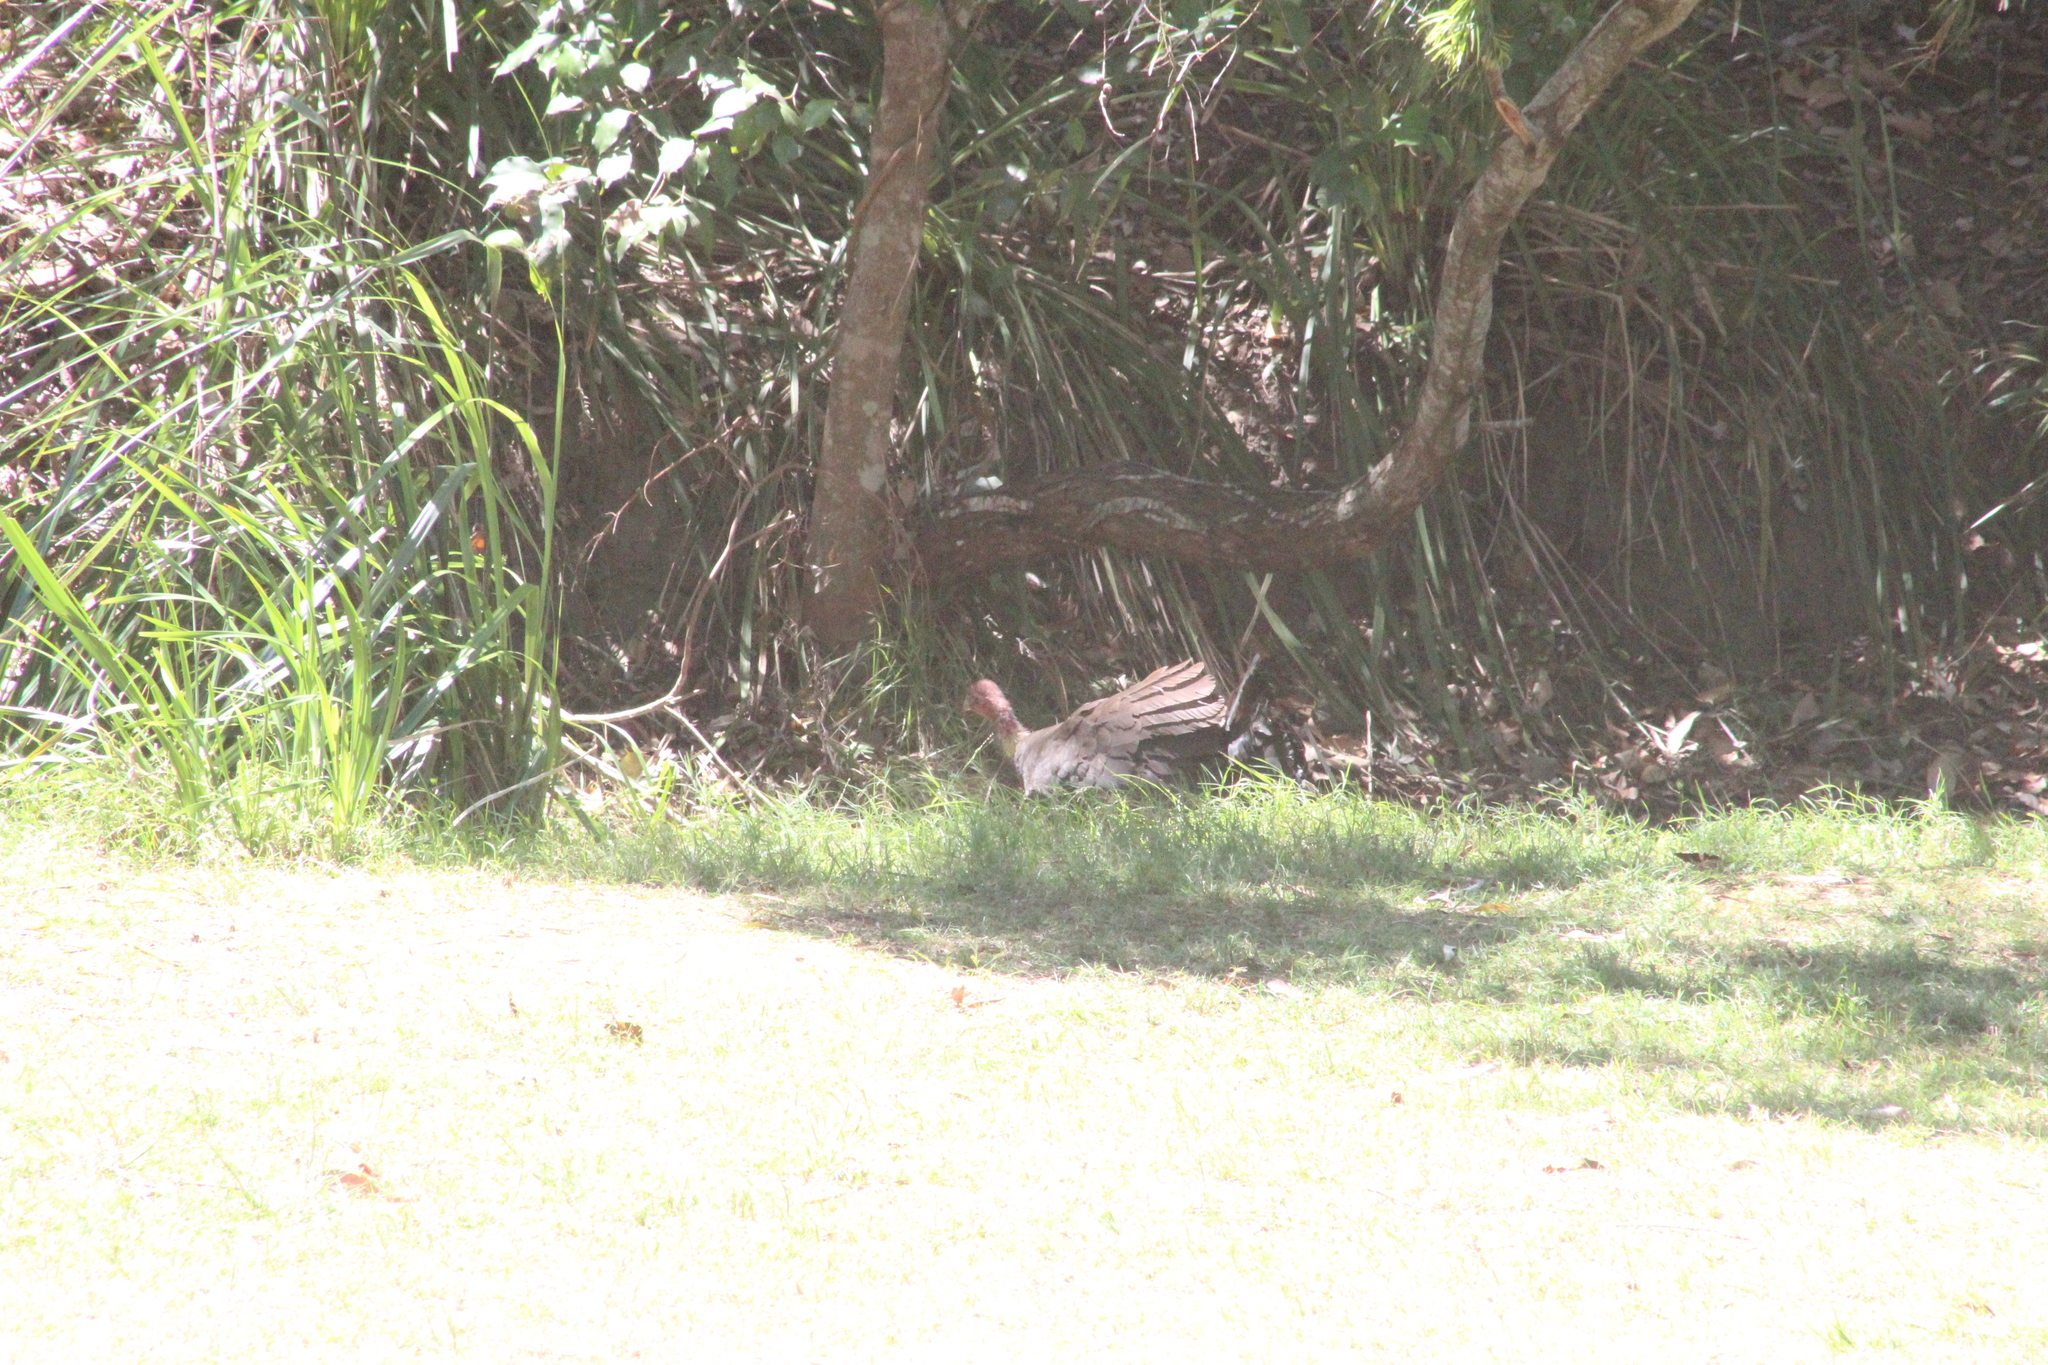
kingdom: Animalia
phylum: Chordata
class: Aves
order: Galliformes
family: Megapodiidae
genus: Alectura
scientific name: Alectura lathami
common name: Australian brushturkey
